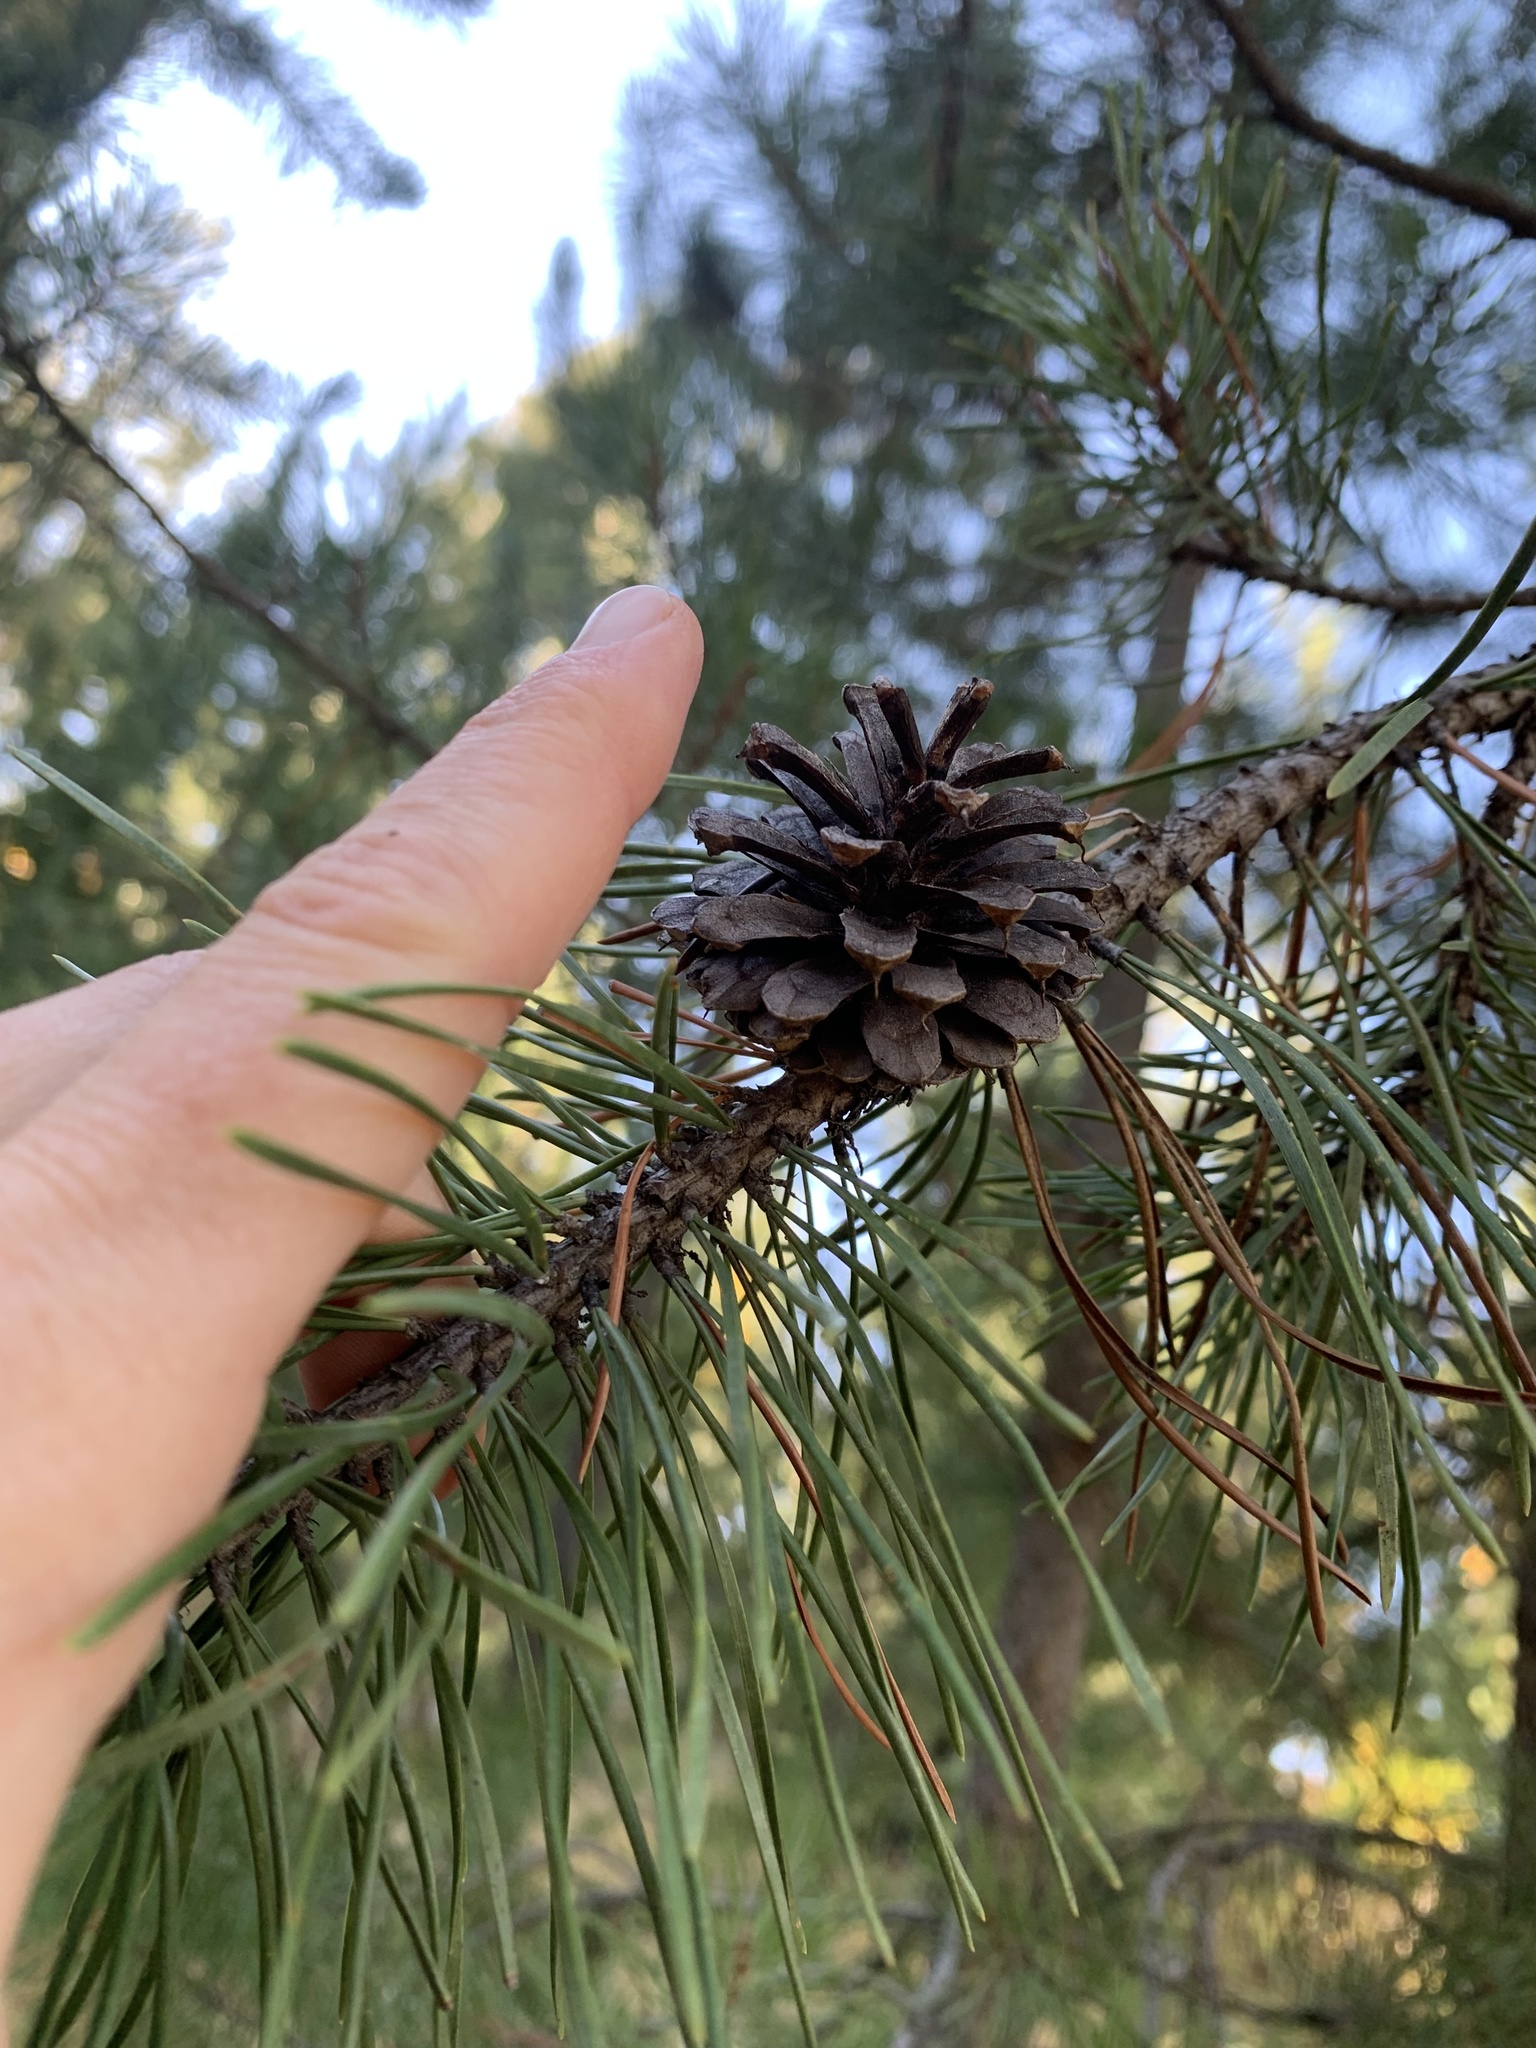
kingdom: Plantae
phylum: Tracheophyta
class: Pinopsida
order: Pinales
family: Pinaceae
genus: Pinus
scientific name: Pinus contorta
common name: Lodgepole pine
